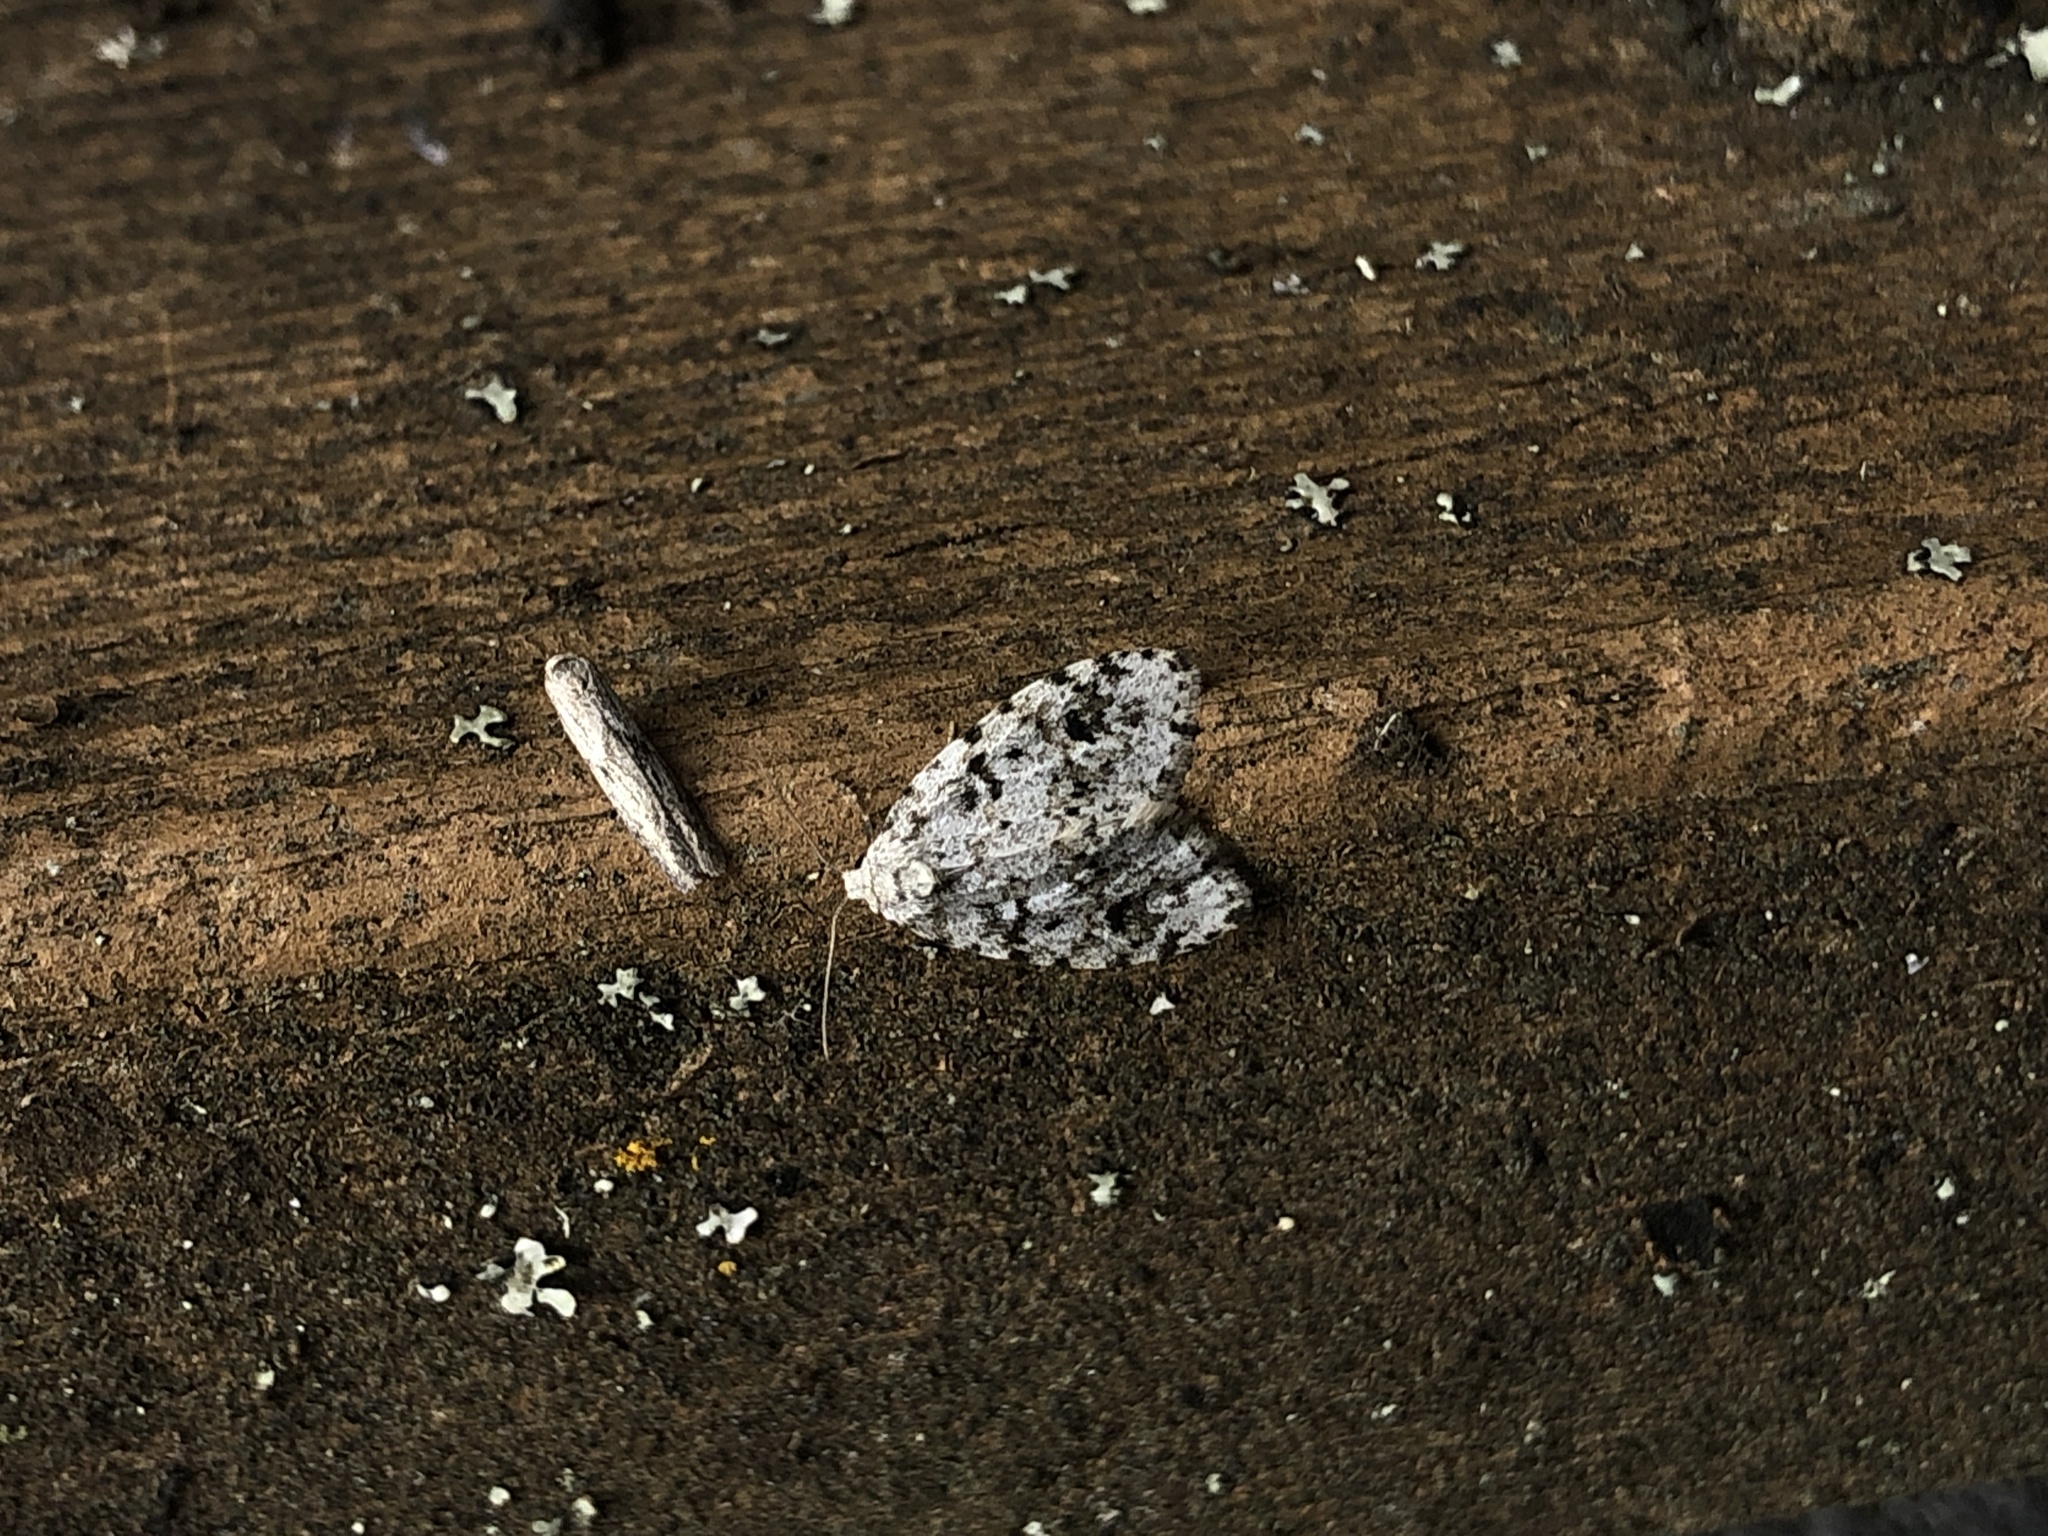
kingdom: Animalia
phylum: Arthropoda
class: Insecta
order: Lepidoptera
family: Erebidae
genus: Clemensia
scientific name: Clemensia umbrata
